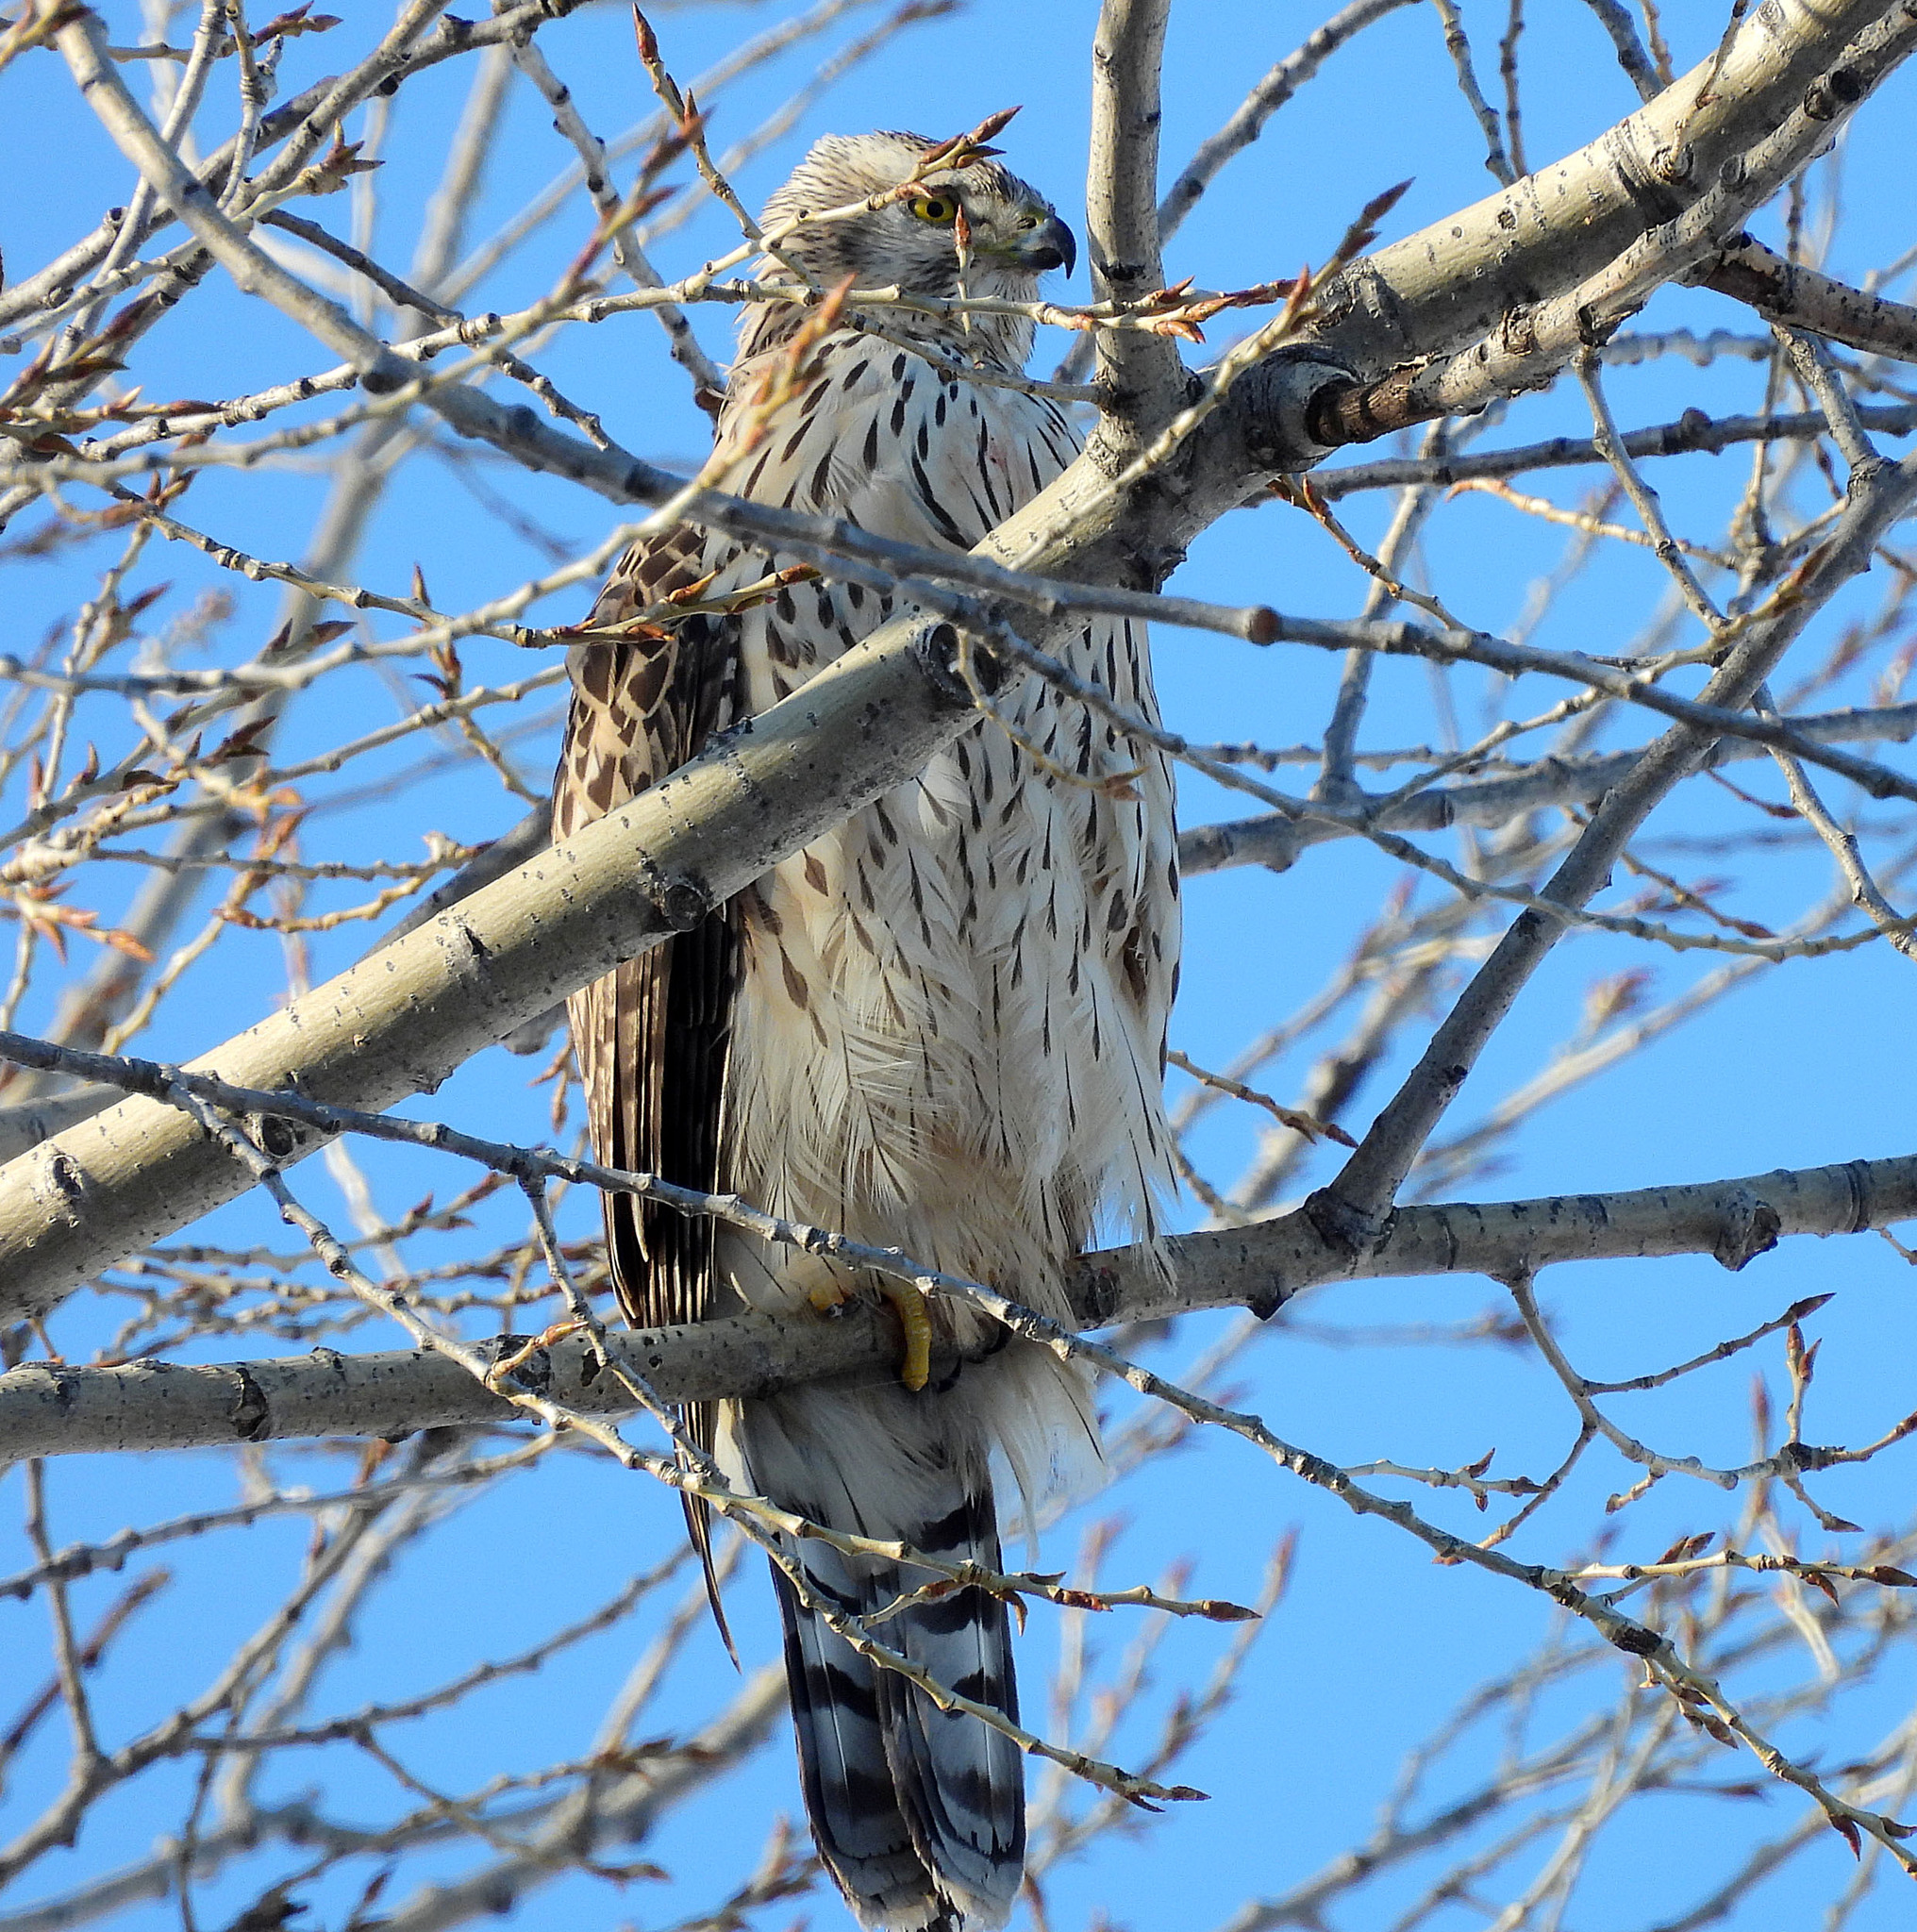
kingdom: Animalia
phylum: Chordata
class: Aves
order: Accipitriformes
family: Accipitridae
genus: Accipiter
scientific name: Accipiter gentilis
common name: Northern goshawk
